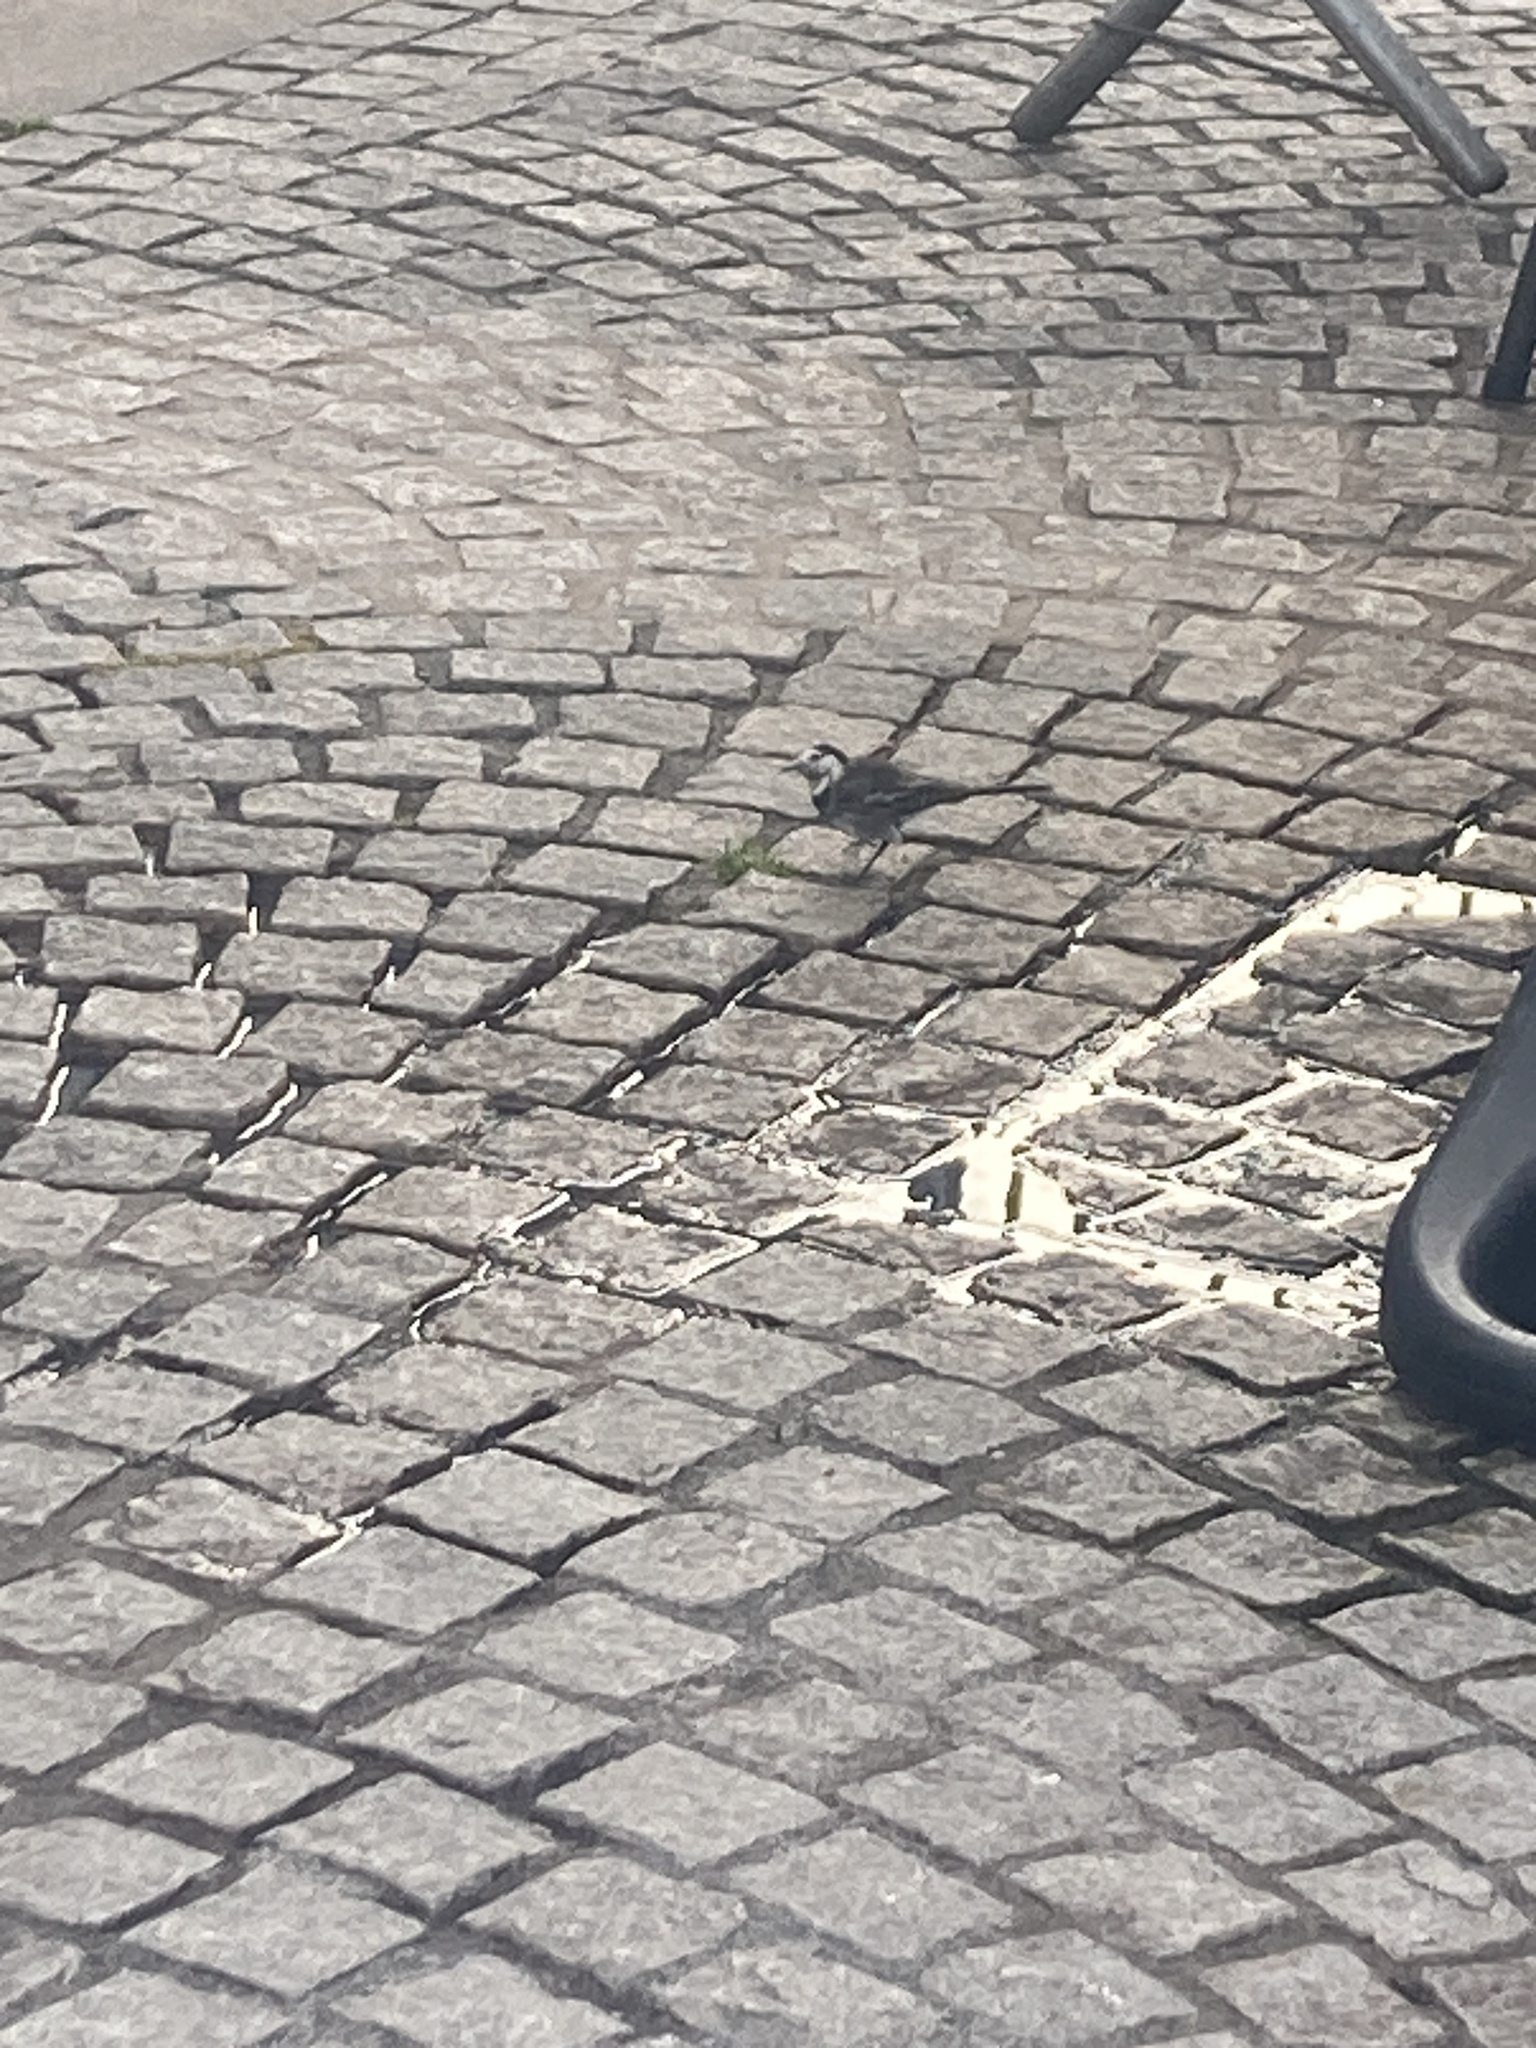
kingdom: Animalia
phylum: Chordata
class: Aves
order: Passeriformes
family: Motacillidae
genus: Motacilla
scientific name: Motacilla alba
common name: White wagtail
